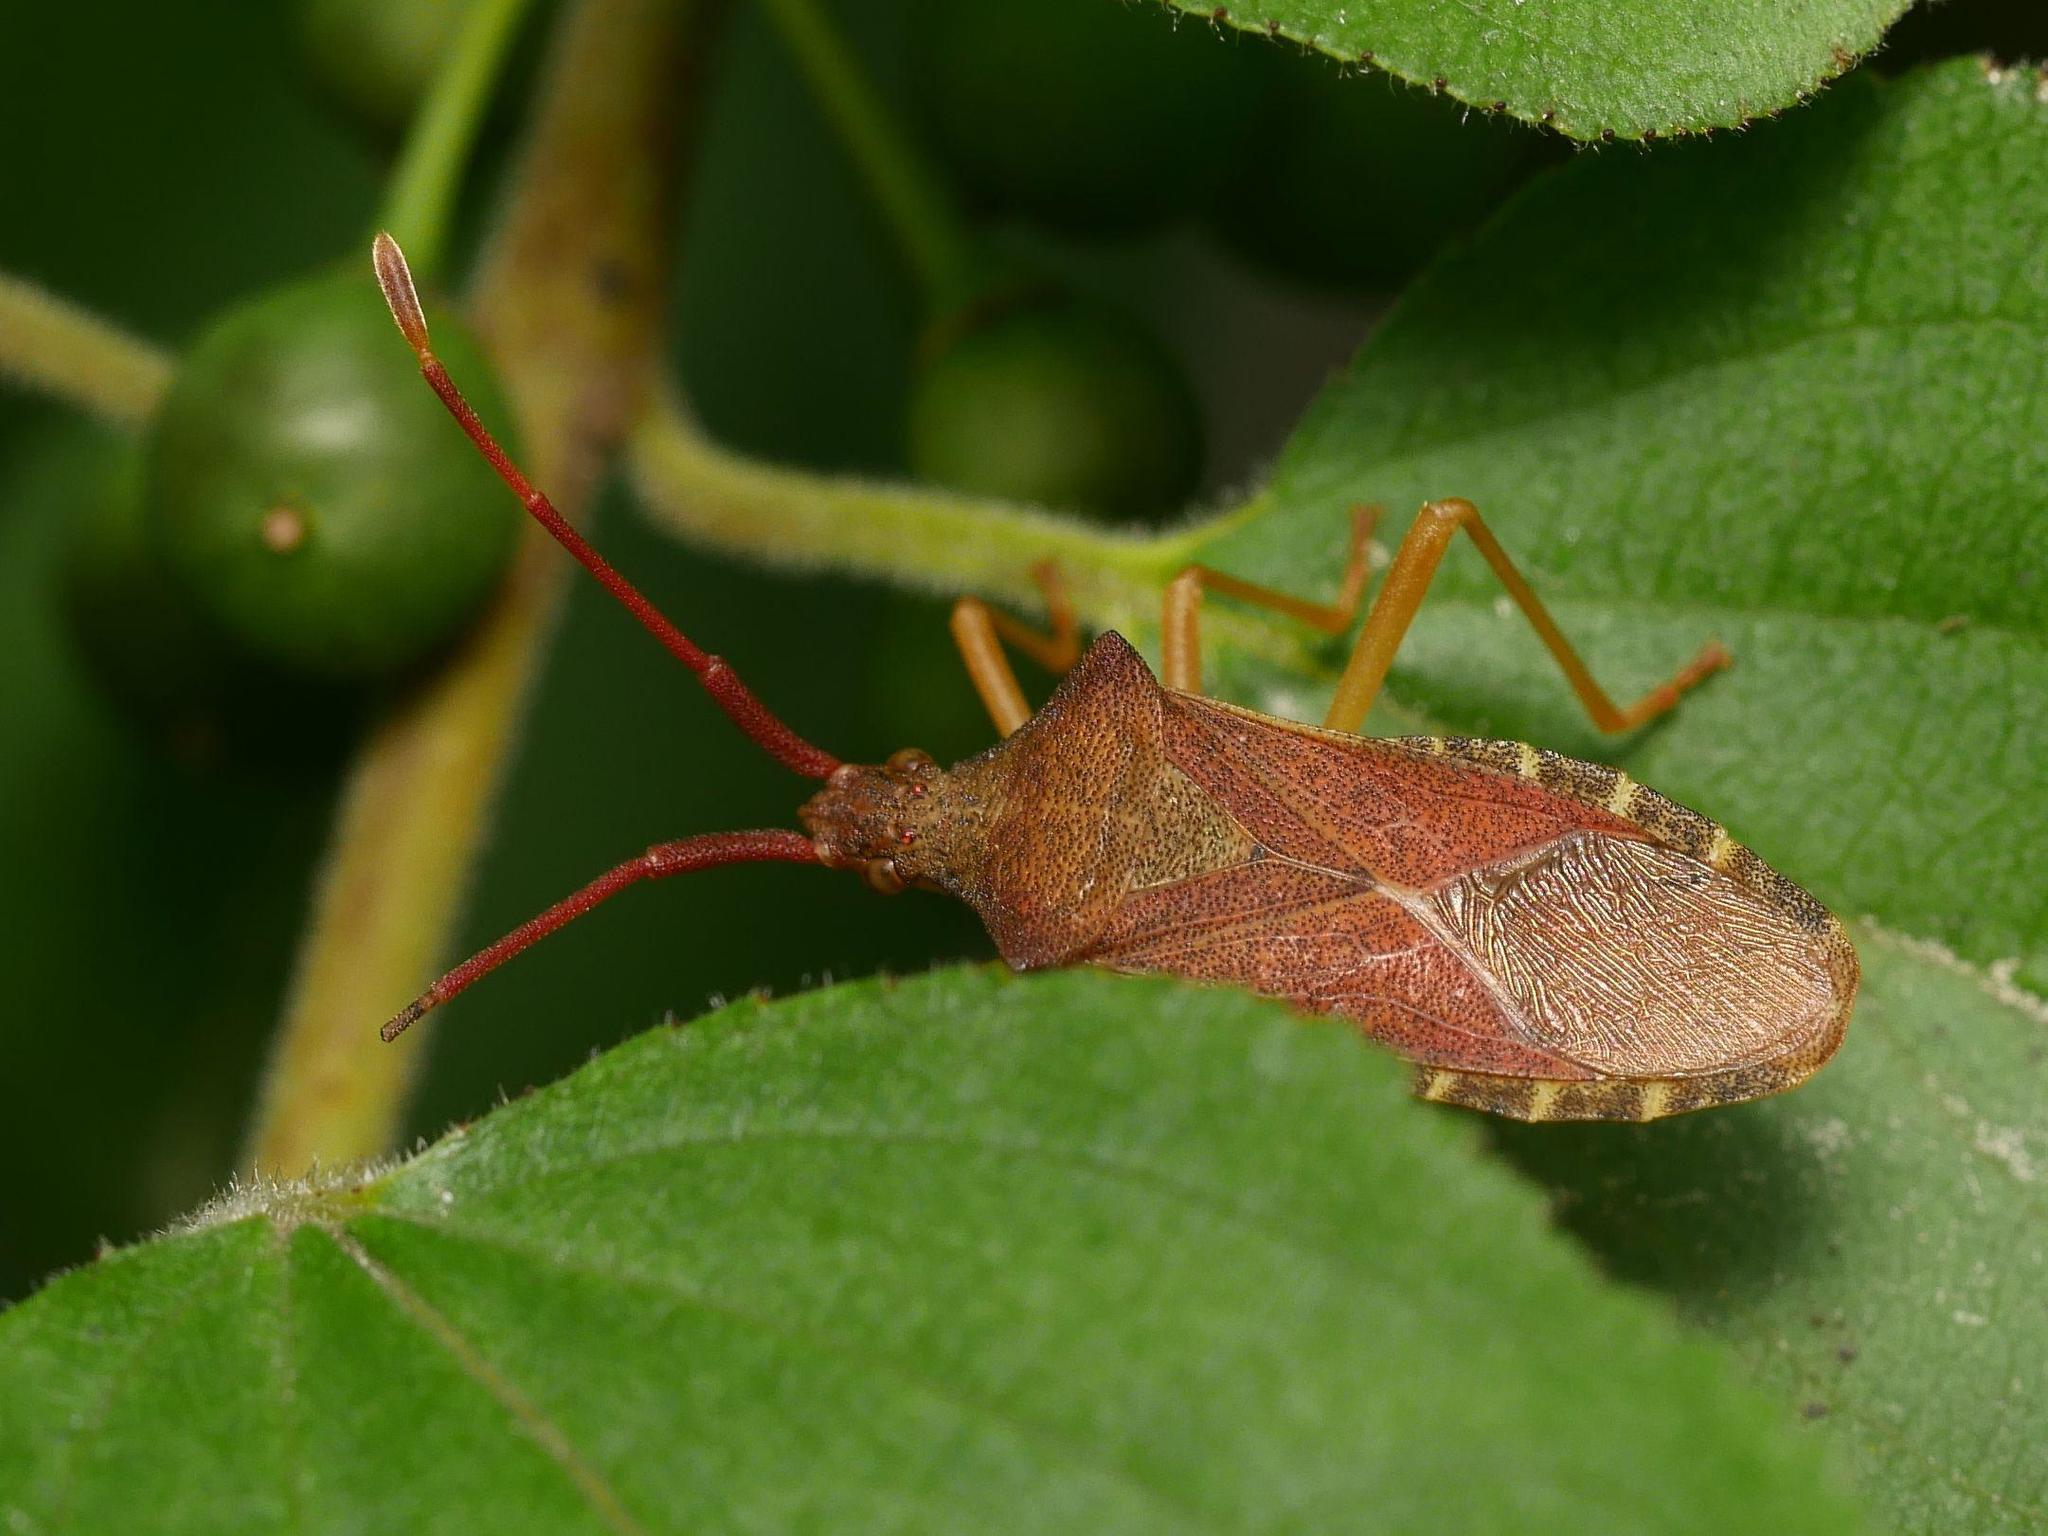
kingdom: Animalia
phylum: Arthropoda
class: Insecta
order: Hemiptera
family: Coreidae
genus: Gonocerus
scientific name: Gonocerus acuteangulatus
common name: Box bug
